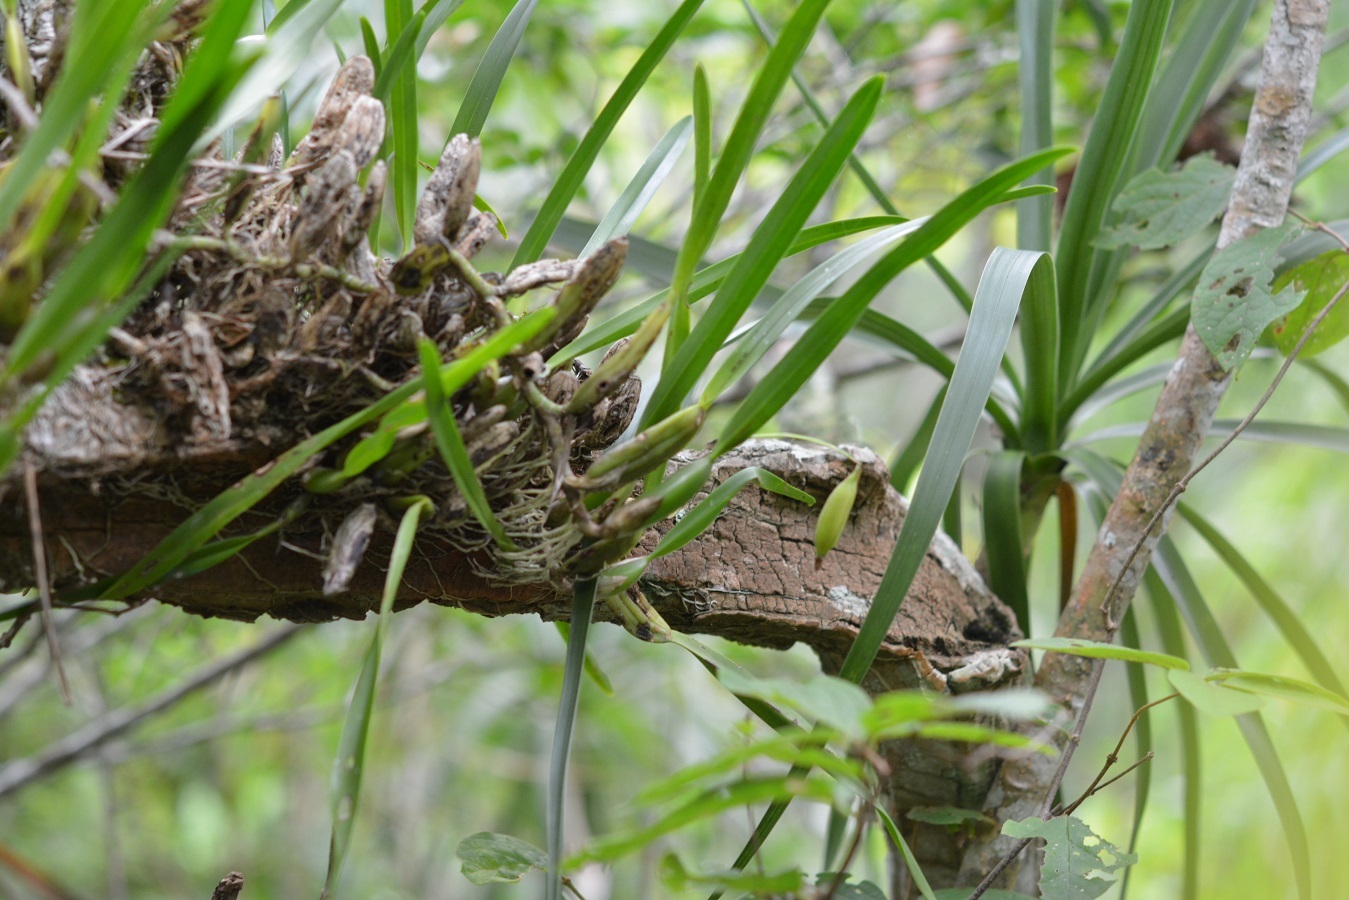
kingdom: Plantae
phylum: Tracheophyta
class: Liliopsida
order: Asparagales
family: Orchidaceae
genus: Nidema
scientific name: Nidema boothii
